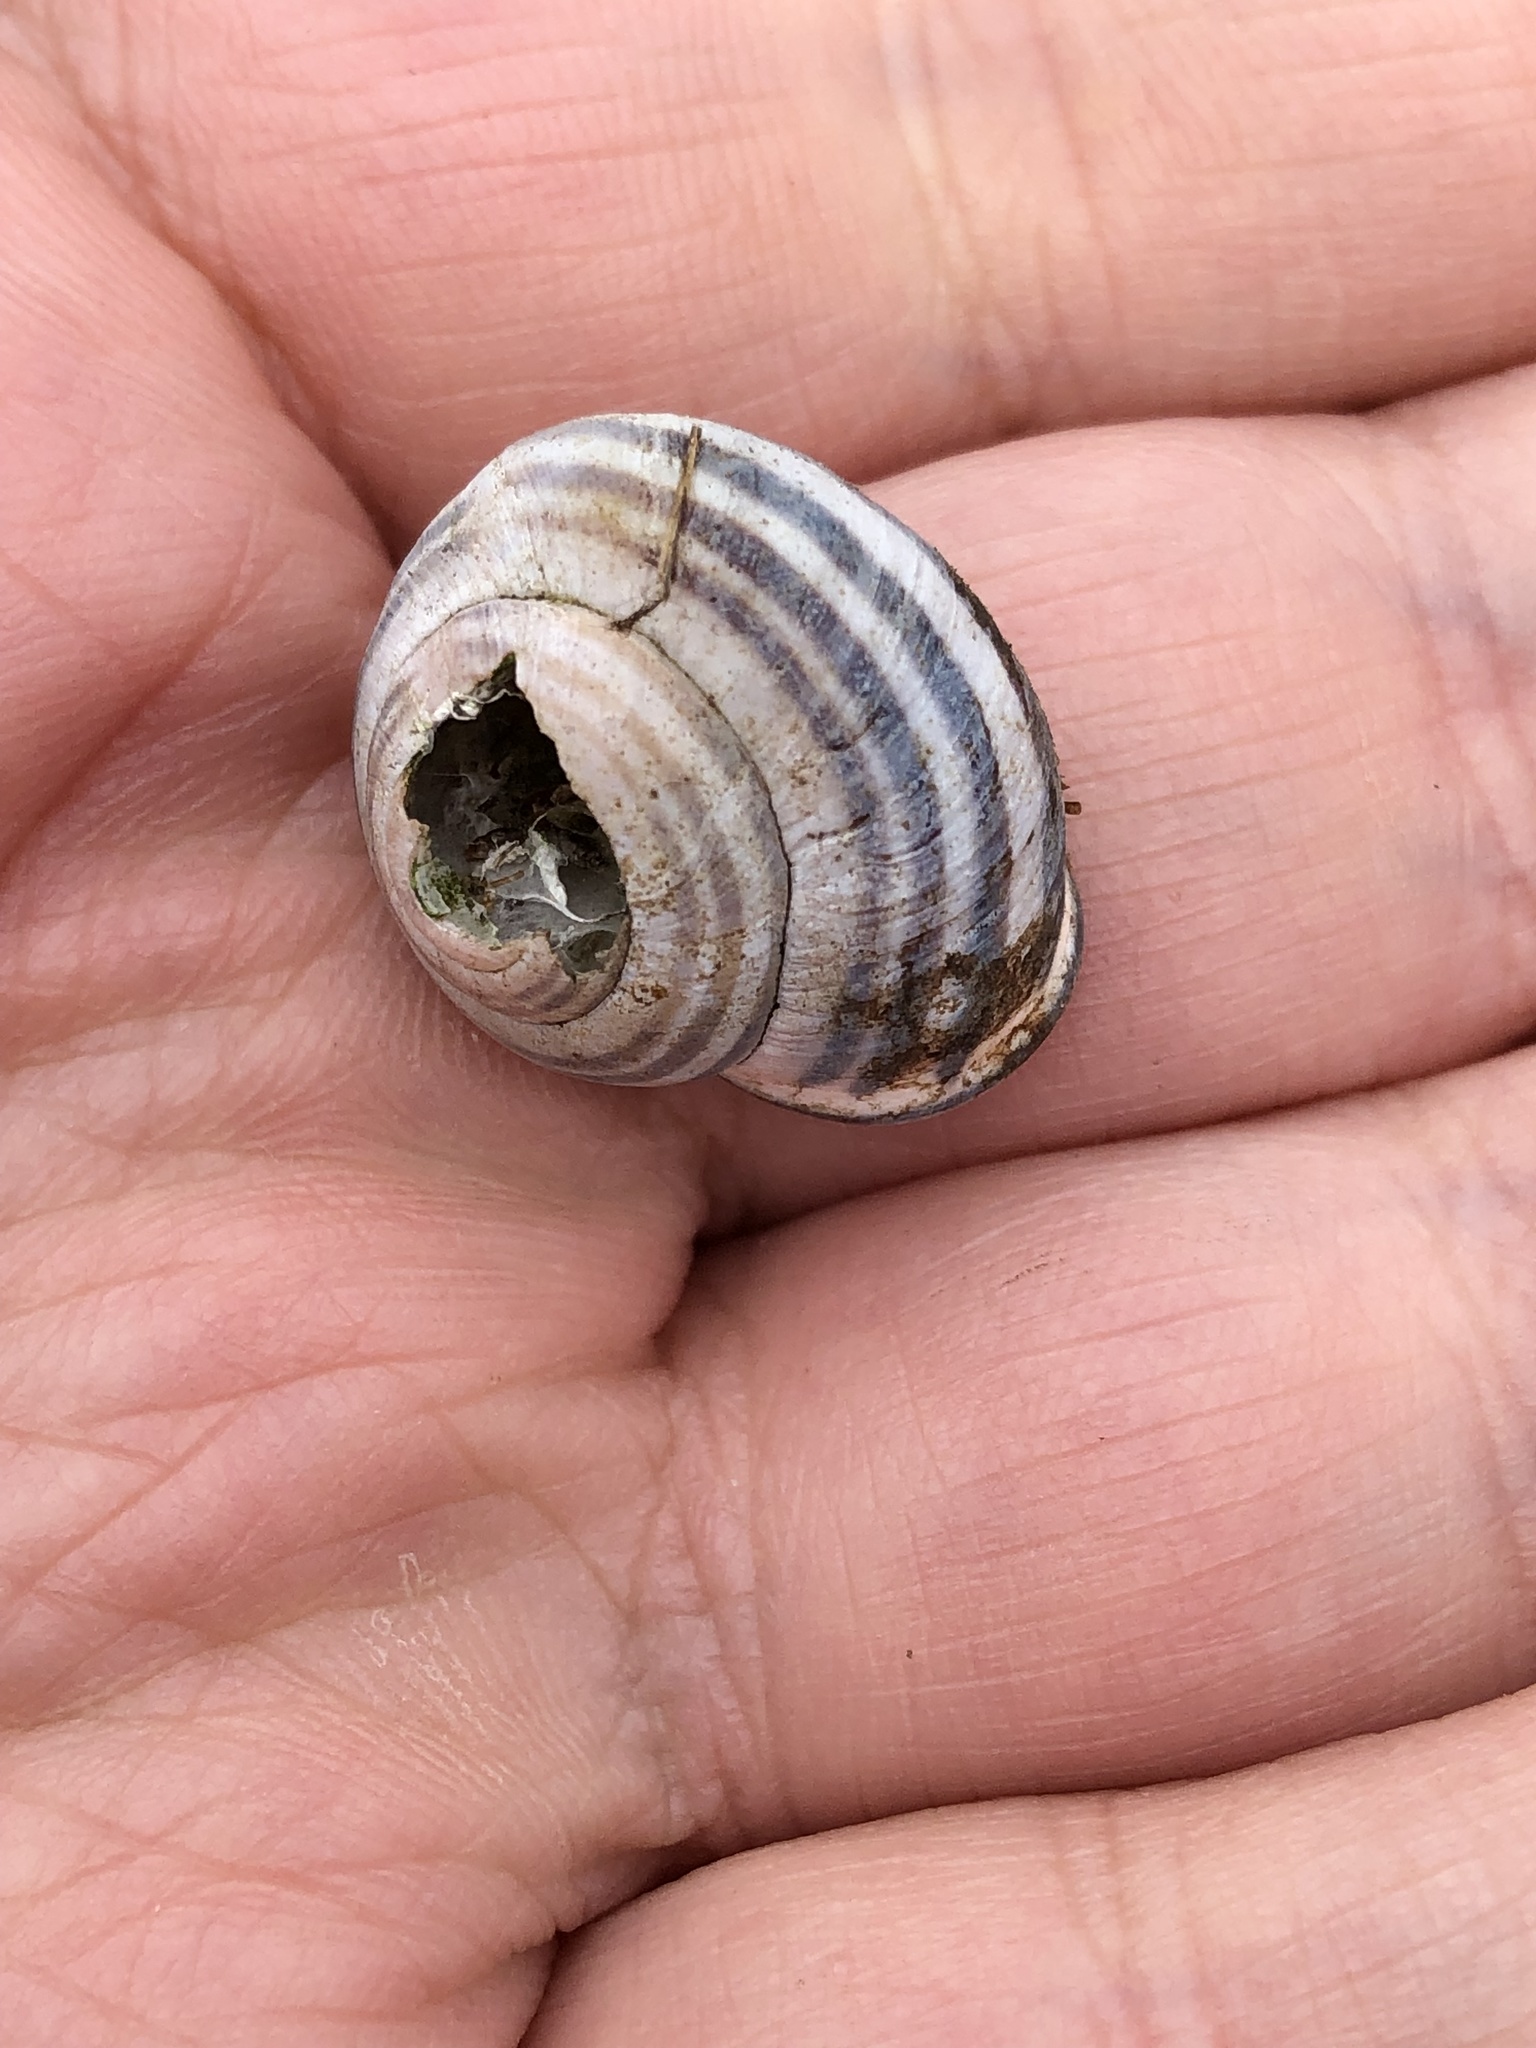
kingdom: Animalia
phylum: Mollusca
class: Gastropoda
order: Stylommatophora
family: Helicidae
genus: Cepaea
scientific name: Cepaea nemoralis
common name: Grovesnail
